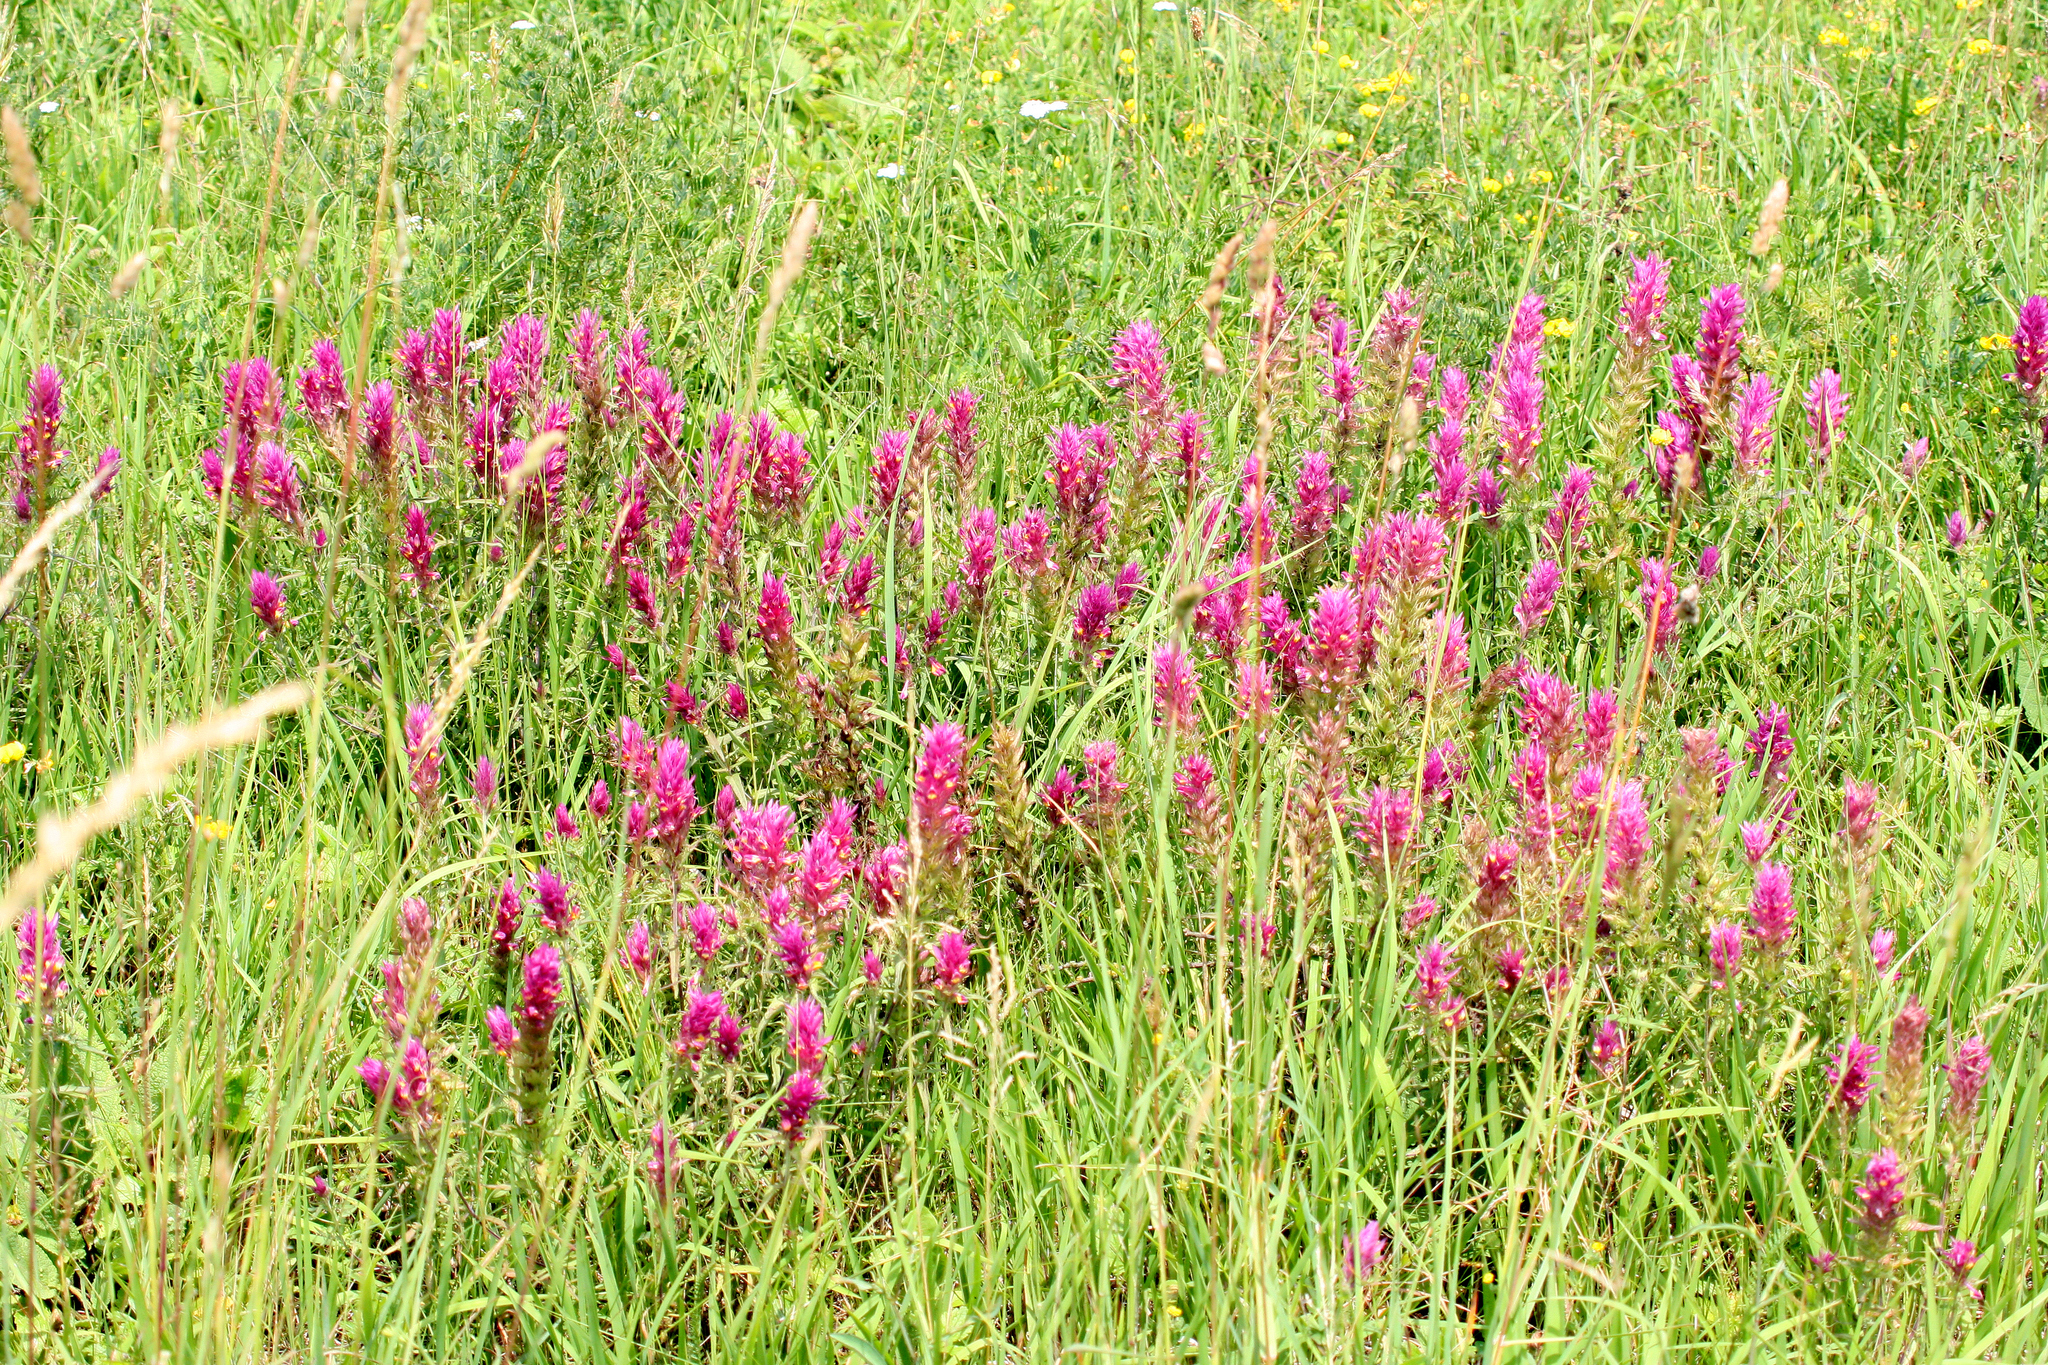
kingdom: Plantae
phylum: Tracheophyta
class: Magnoliopsida
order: Lamiales
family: Orobanchaceae
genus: Melampyrum
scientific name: Melampyrum arvense
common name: Field cow-wheat
